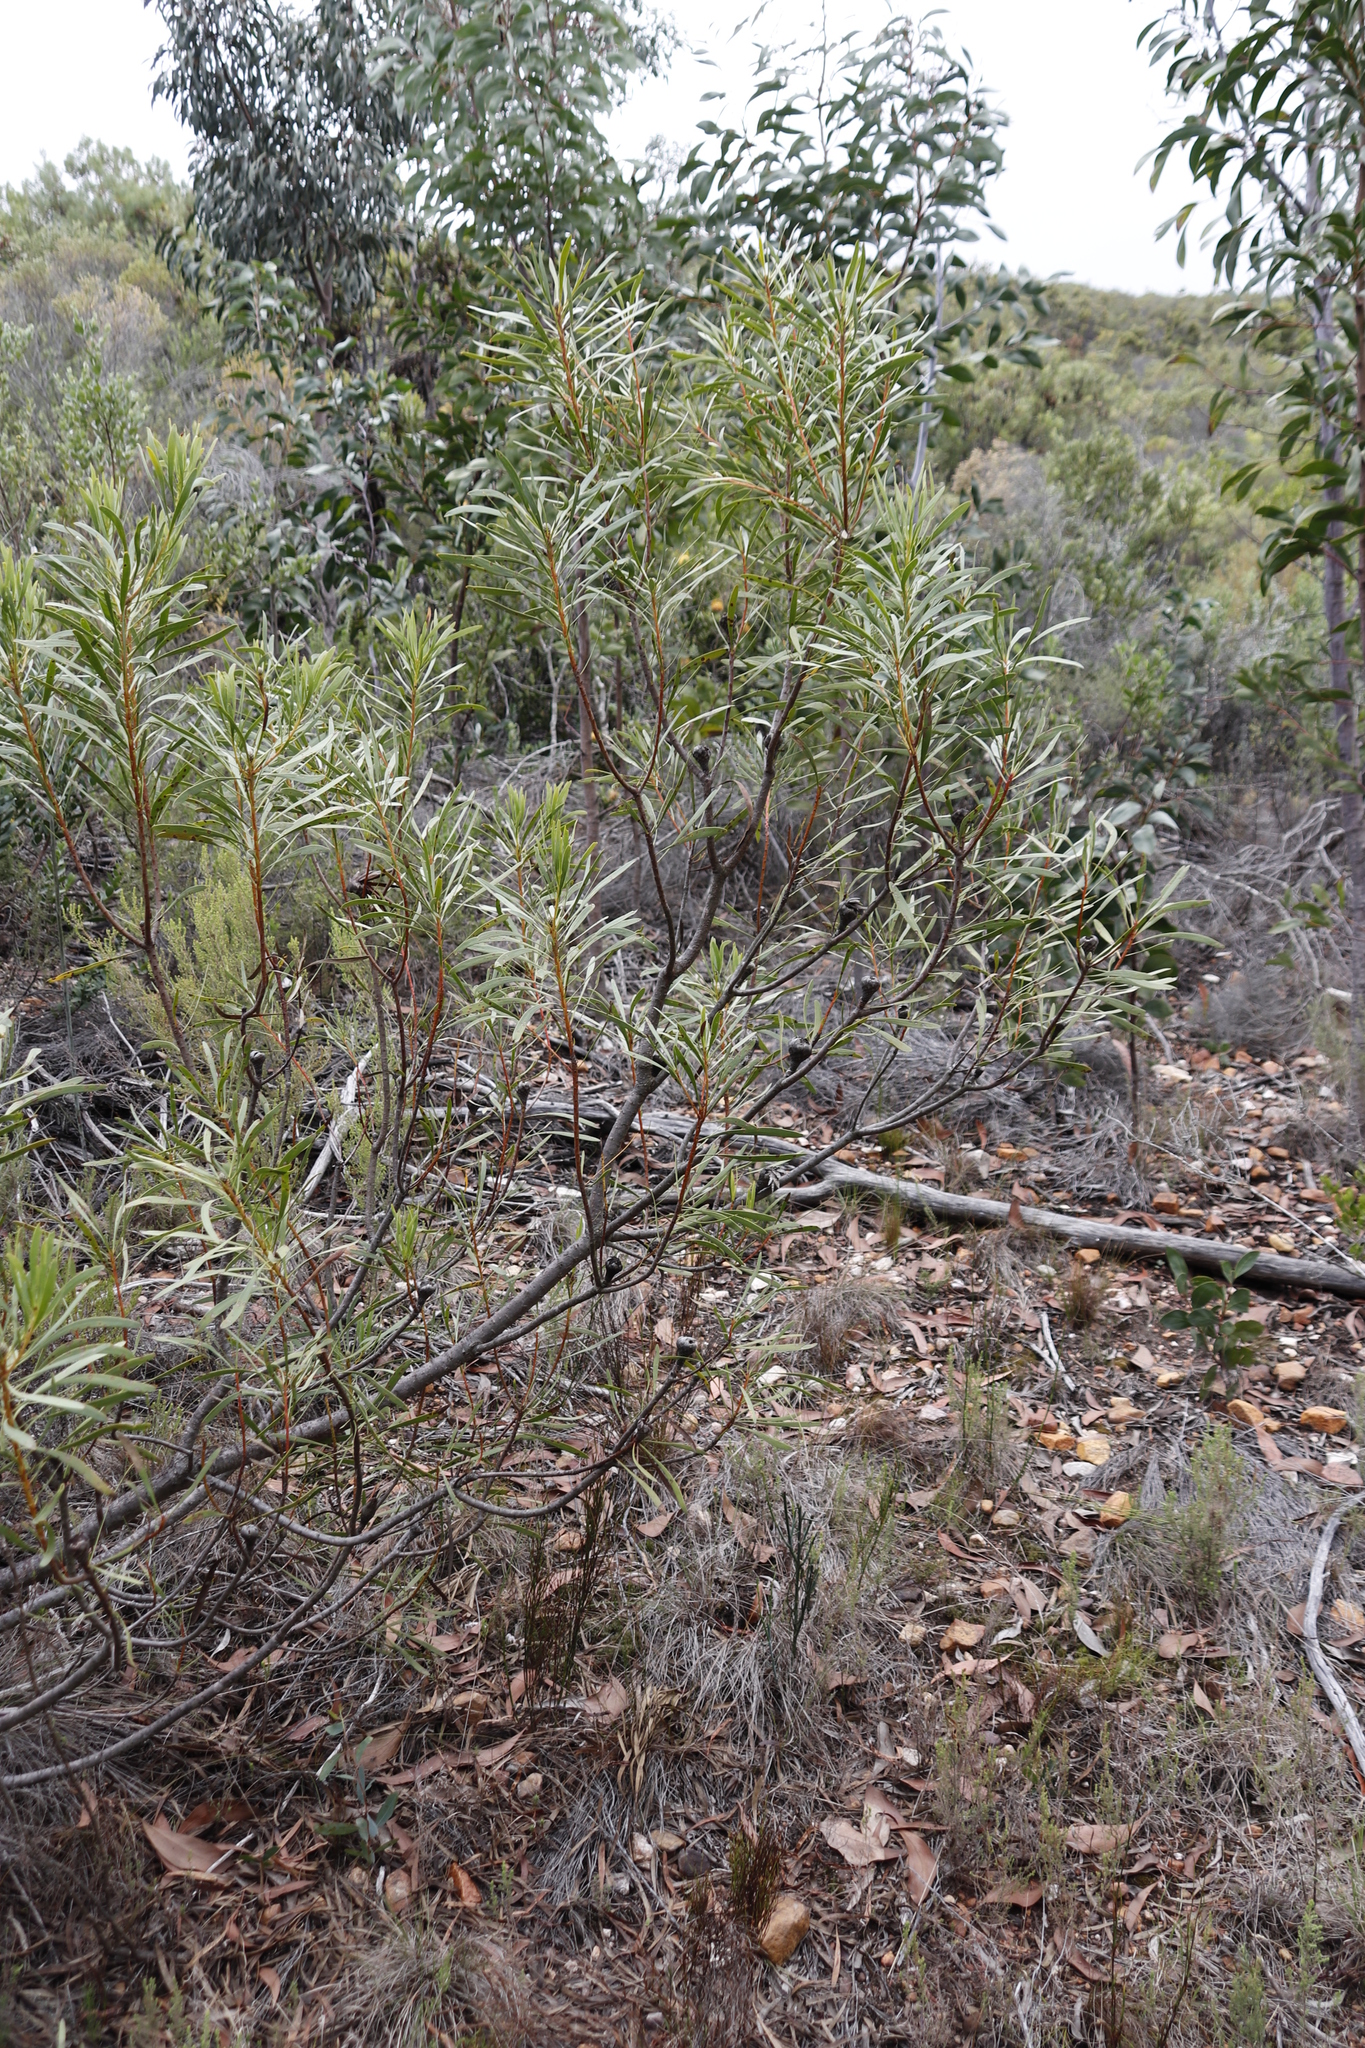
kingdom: Plantae
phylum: Tracheophyta
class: Magnoliopsida
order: Proteales
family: Proteaceae
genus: Protea
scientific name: Protea repens
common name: Sugarbush
